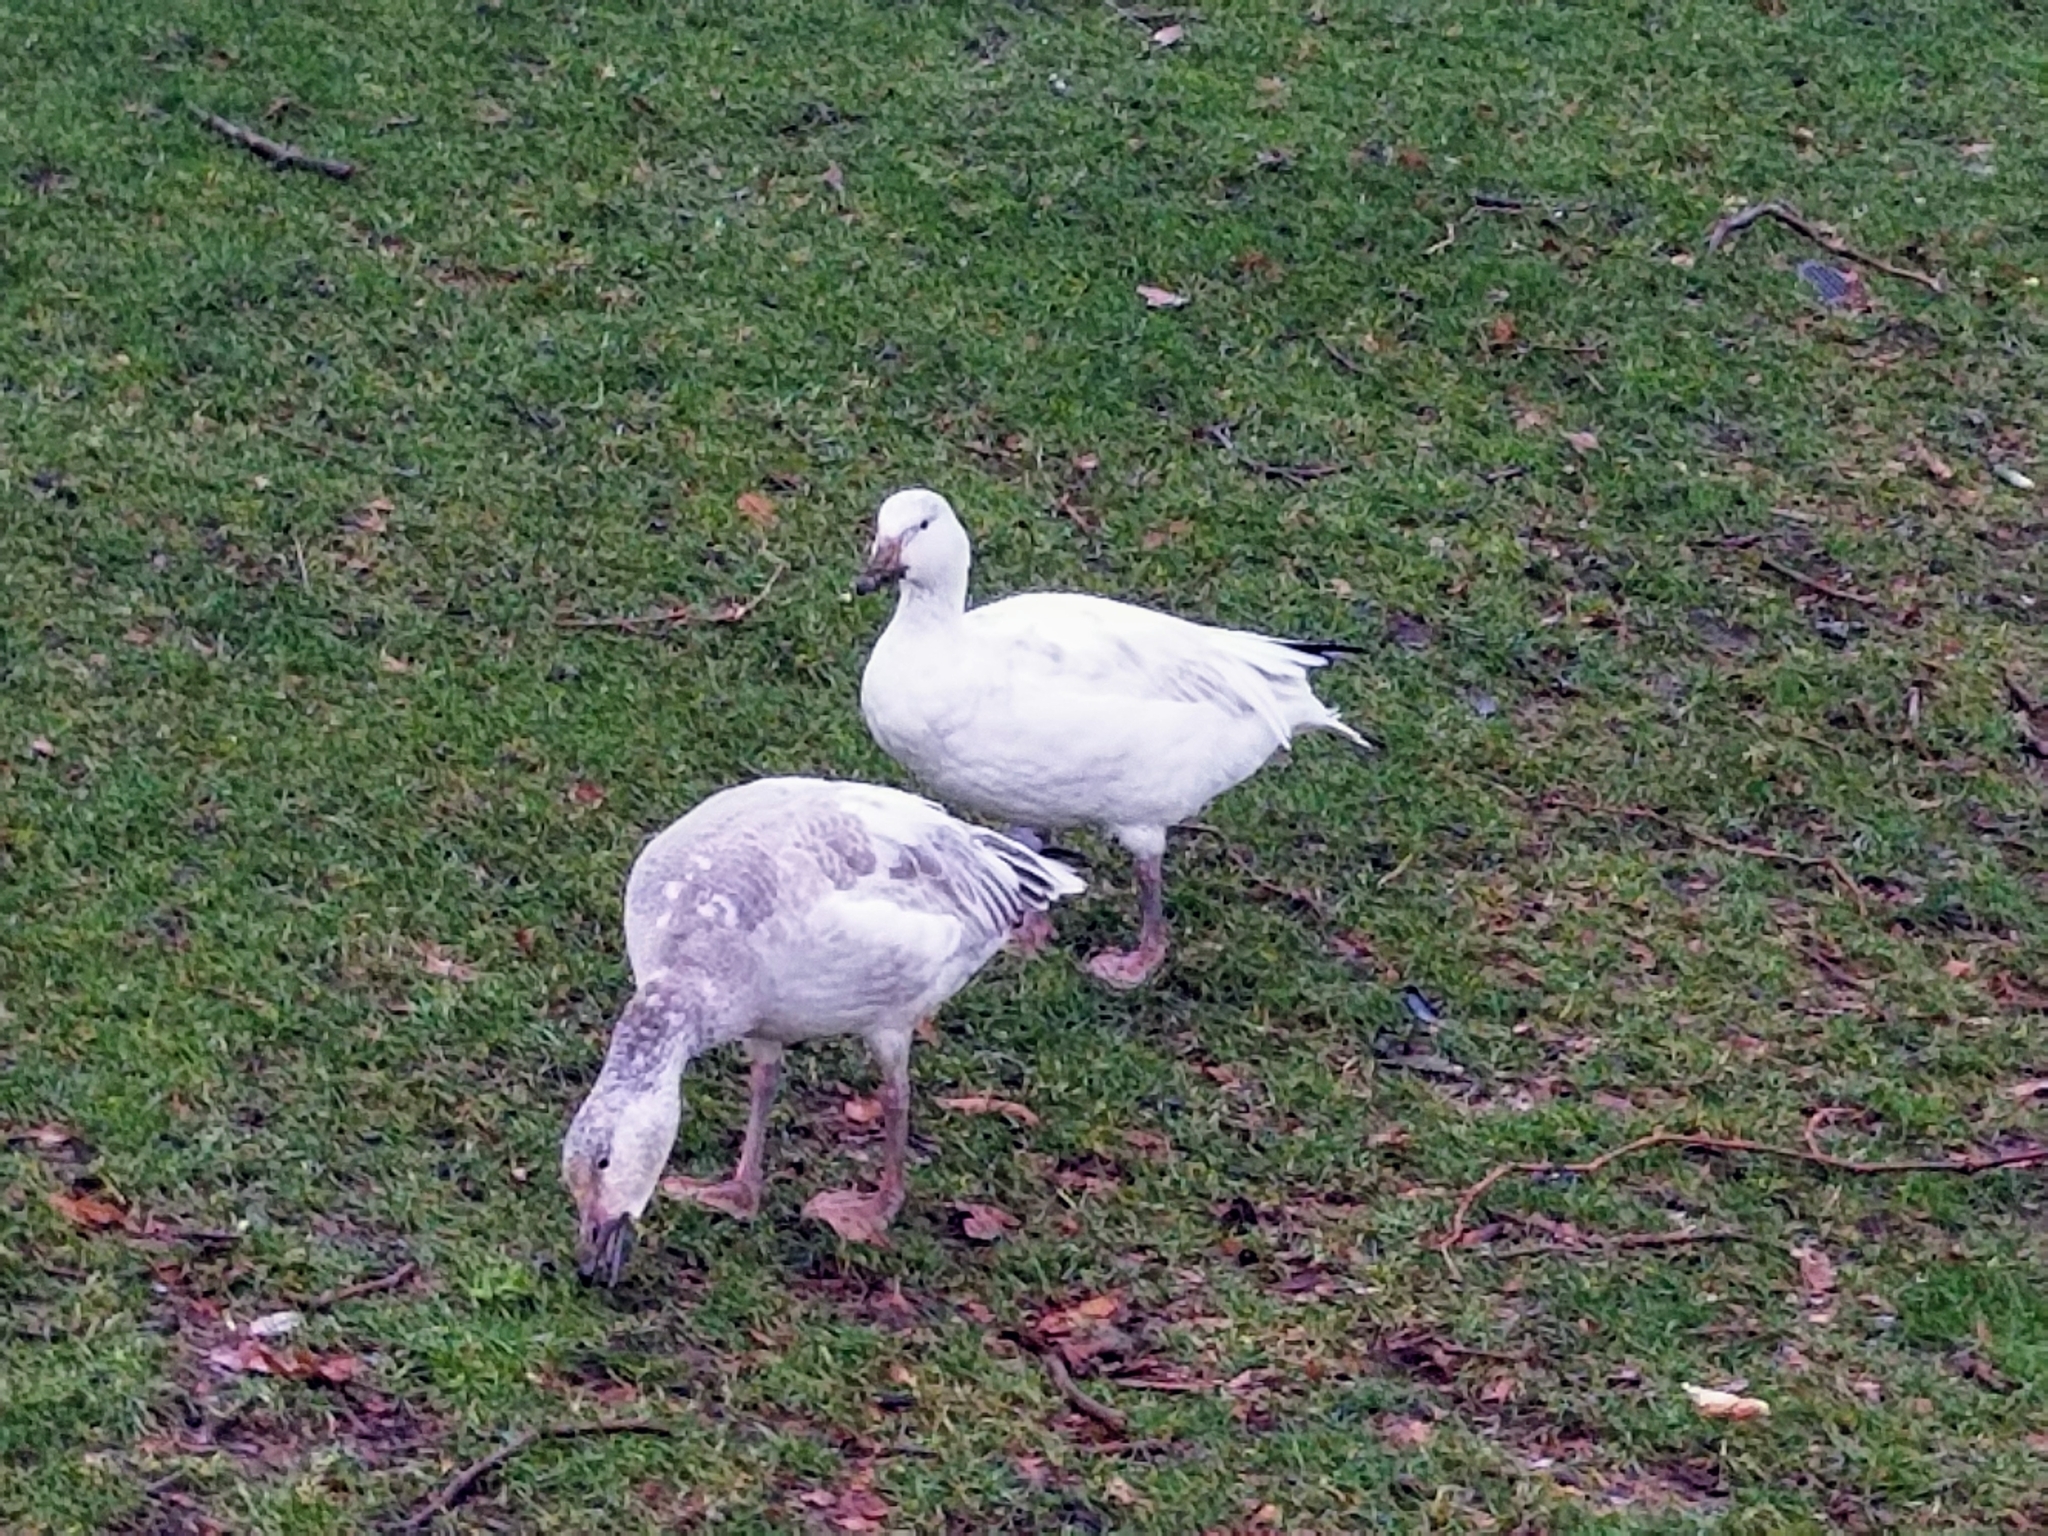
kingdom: Animalia
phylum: Chordata
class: Aves
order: Anseriformes
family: Anatidae
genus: Anser
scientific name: Anser caerulescens
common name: Snow goose
